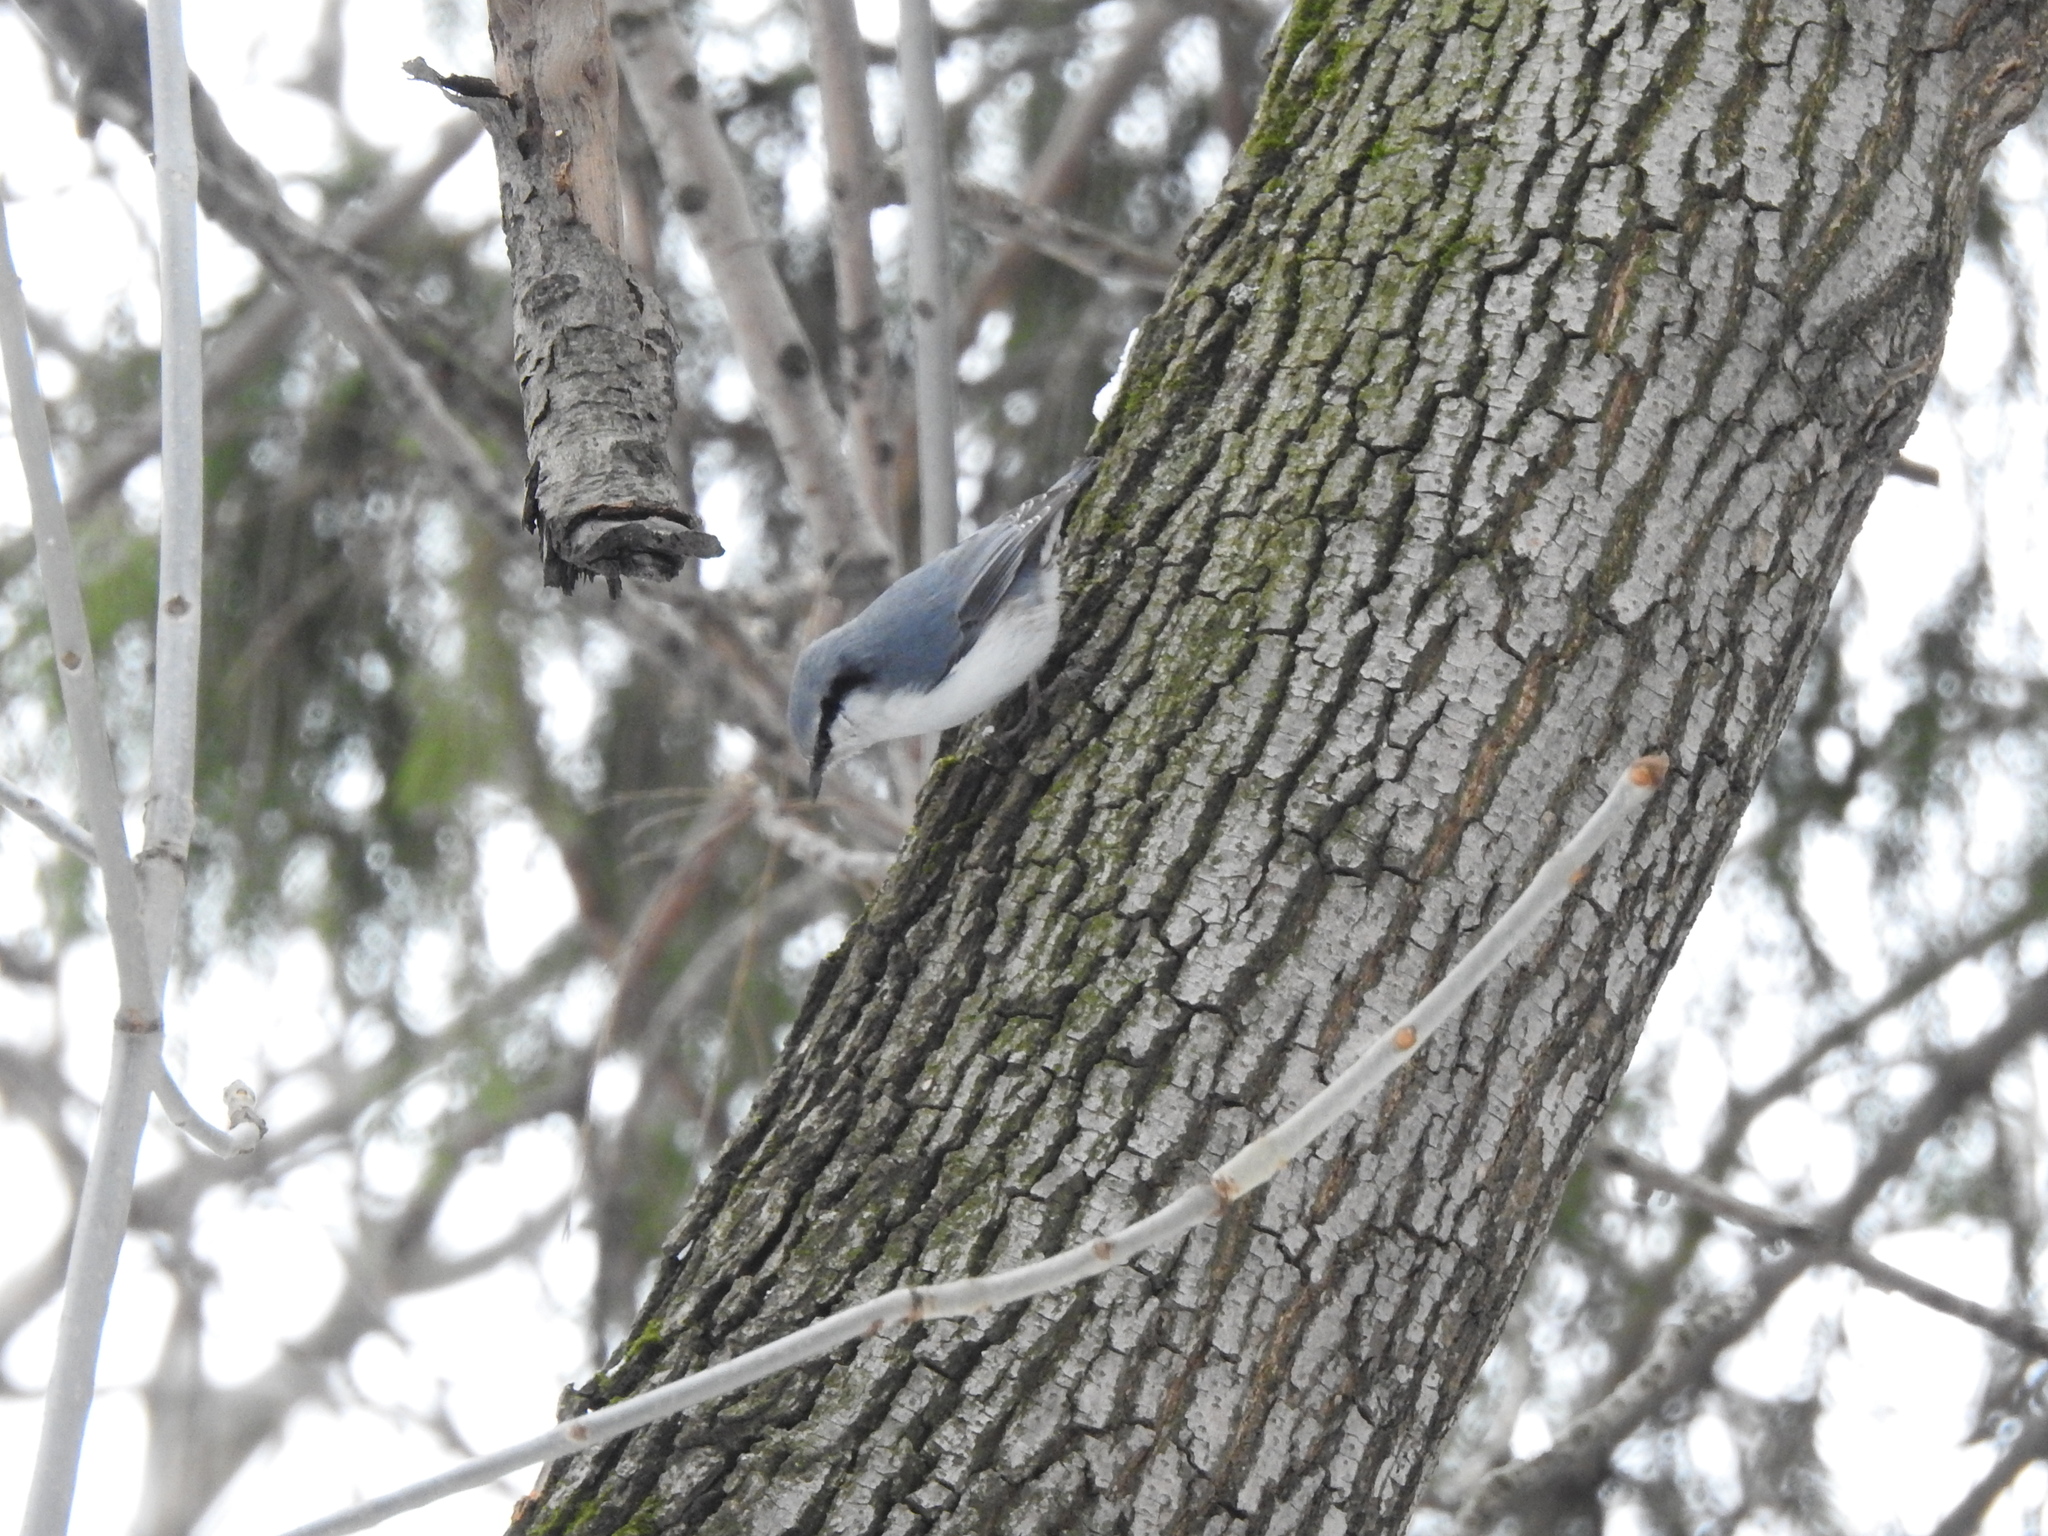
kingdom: Animalia
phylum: Chordata
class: Aves
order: Passeriformes
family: Sittidae
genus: Sitta
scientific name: Sitta europaea
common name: Eurasian nuthatch
